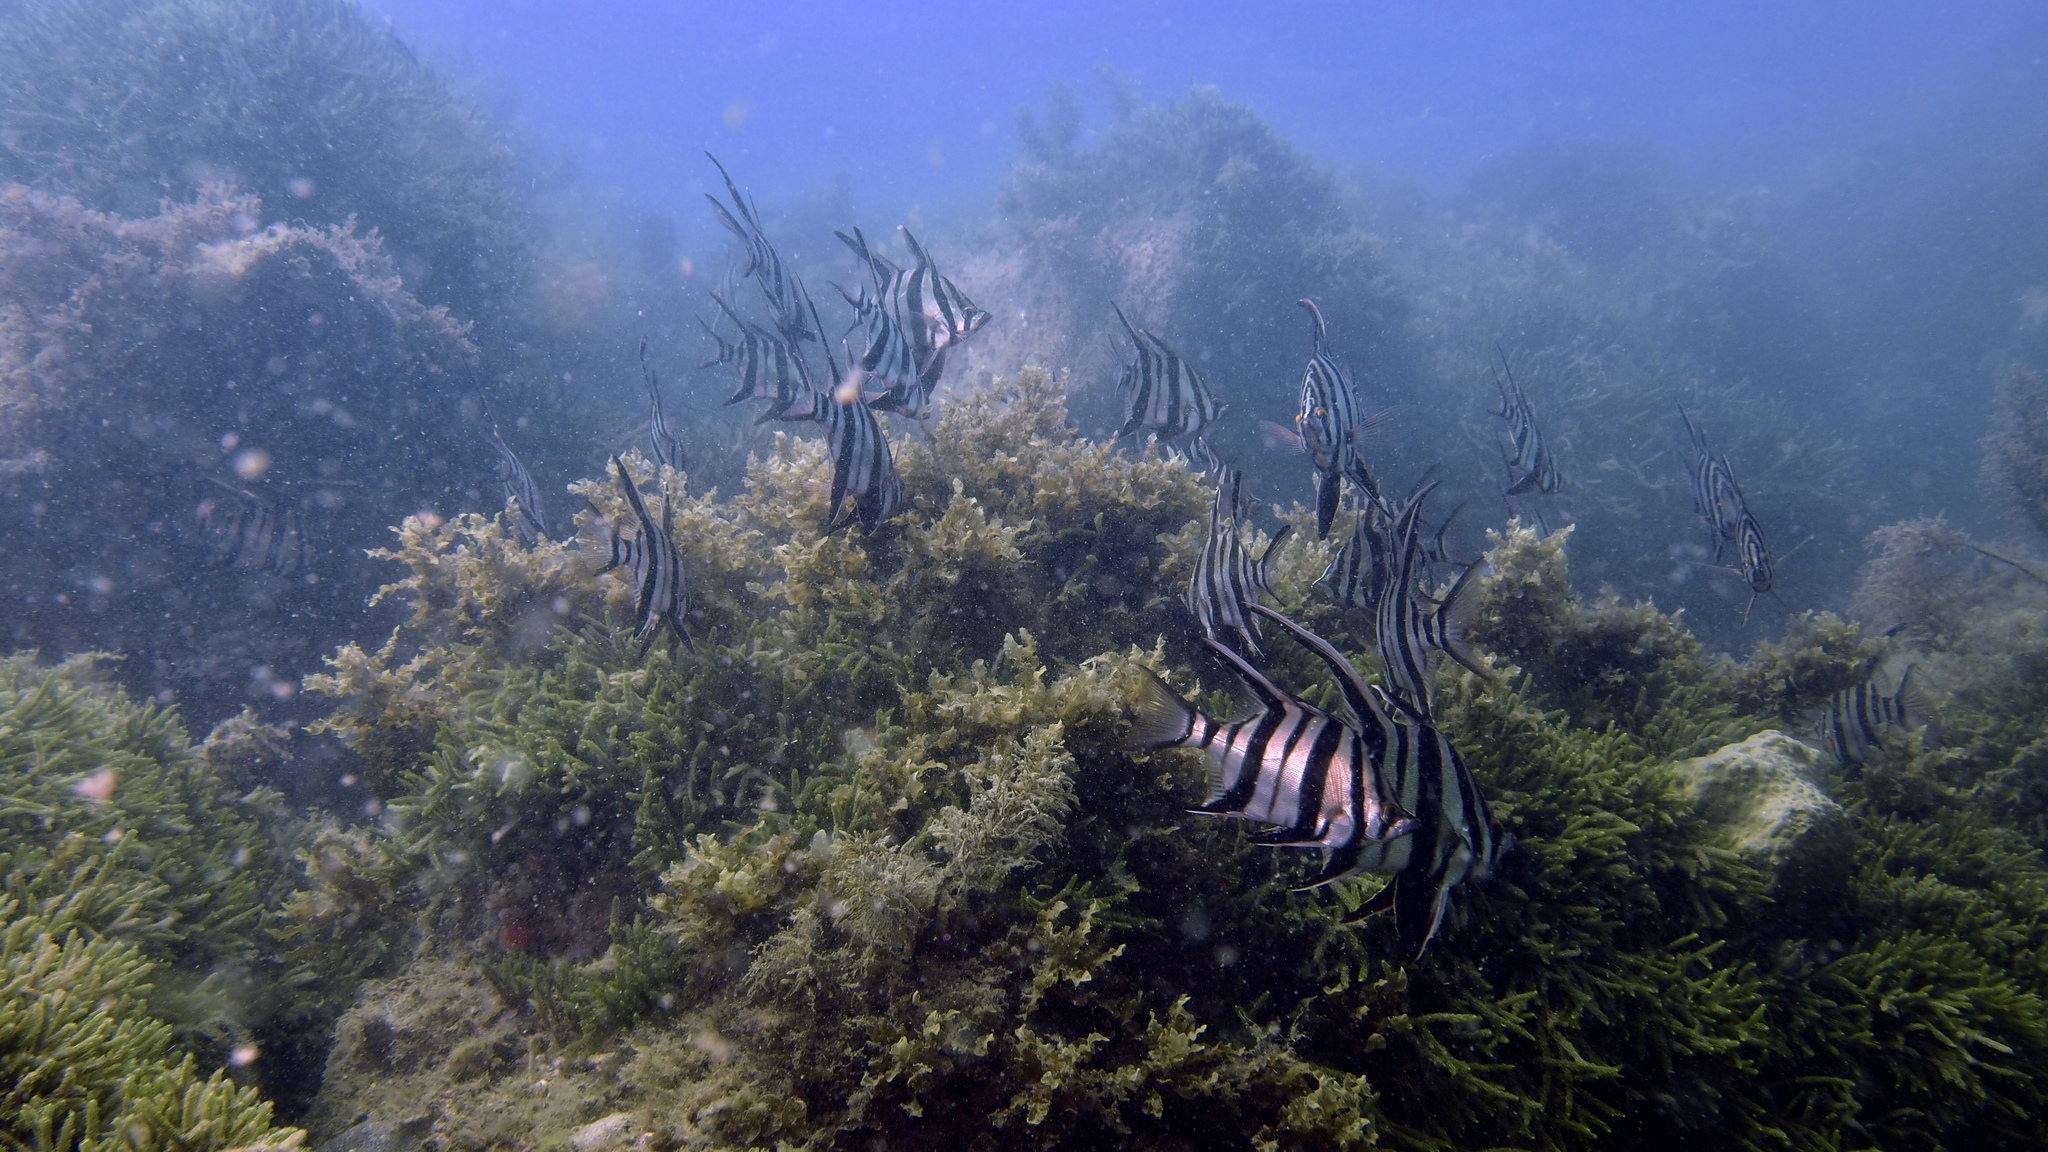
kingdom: Animalia
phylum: Chordata
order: Perciformes
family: Enoplosidae
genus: Enoplosus
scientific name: Enoplosus armatus
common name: Old wife
